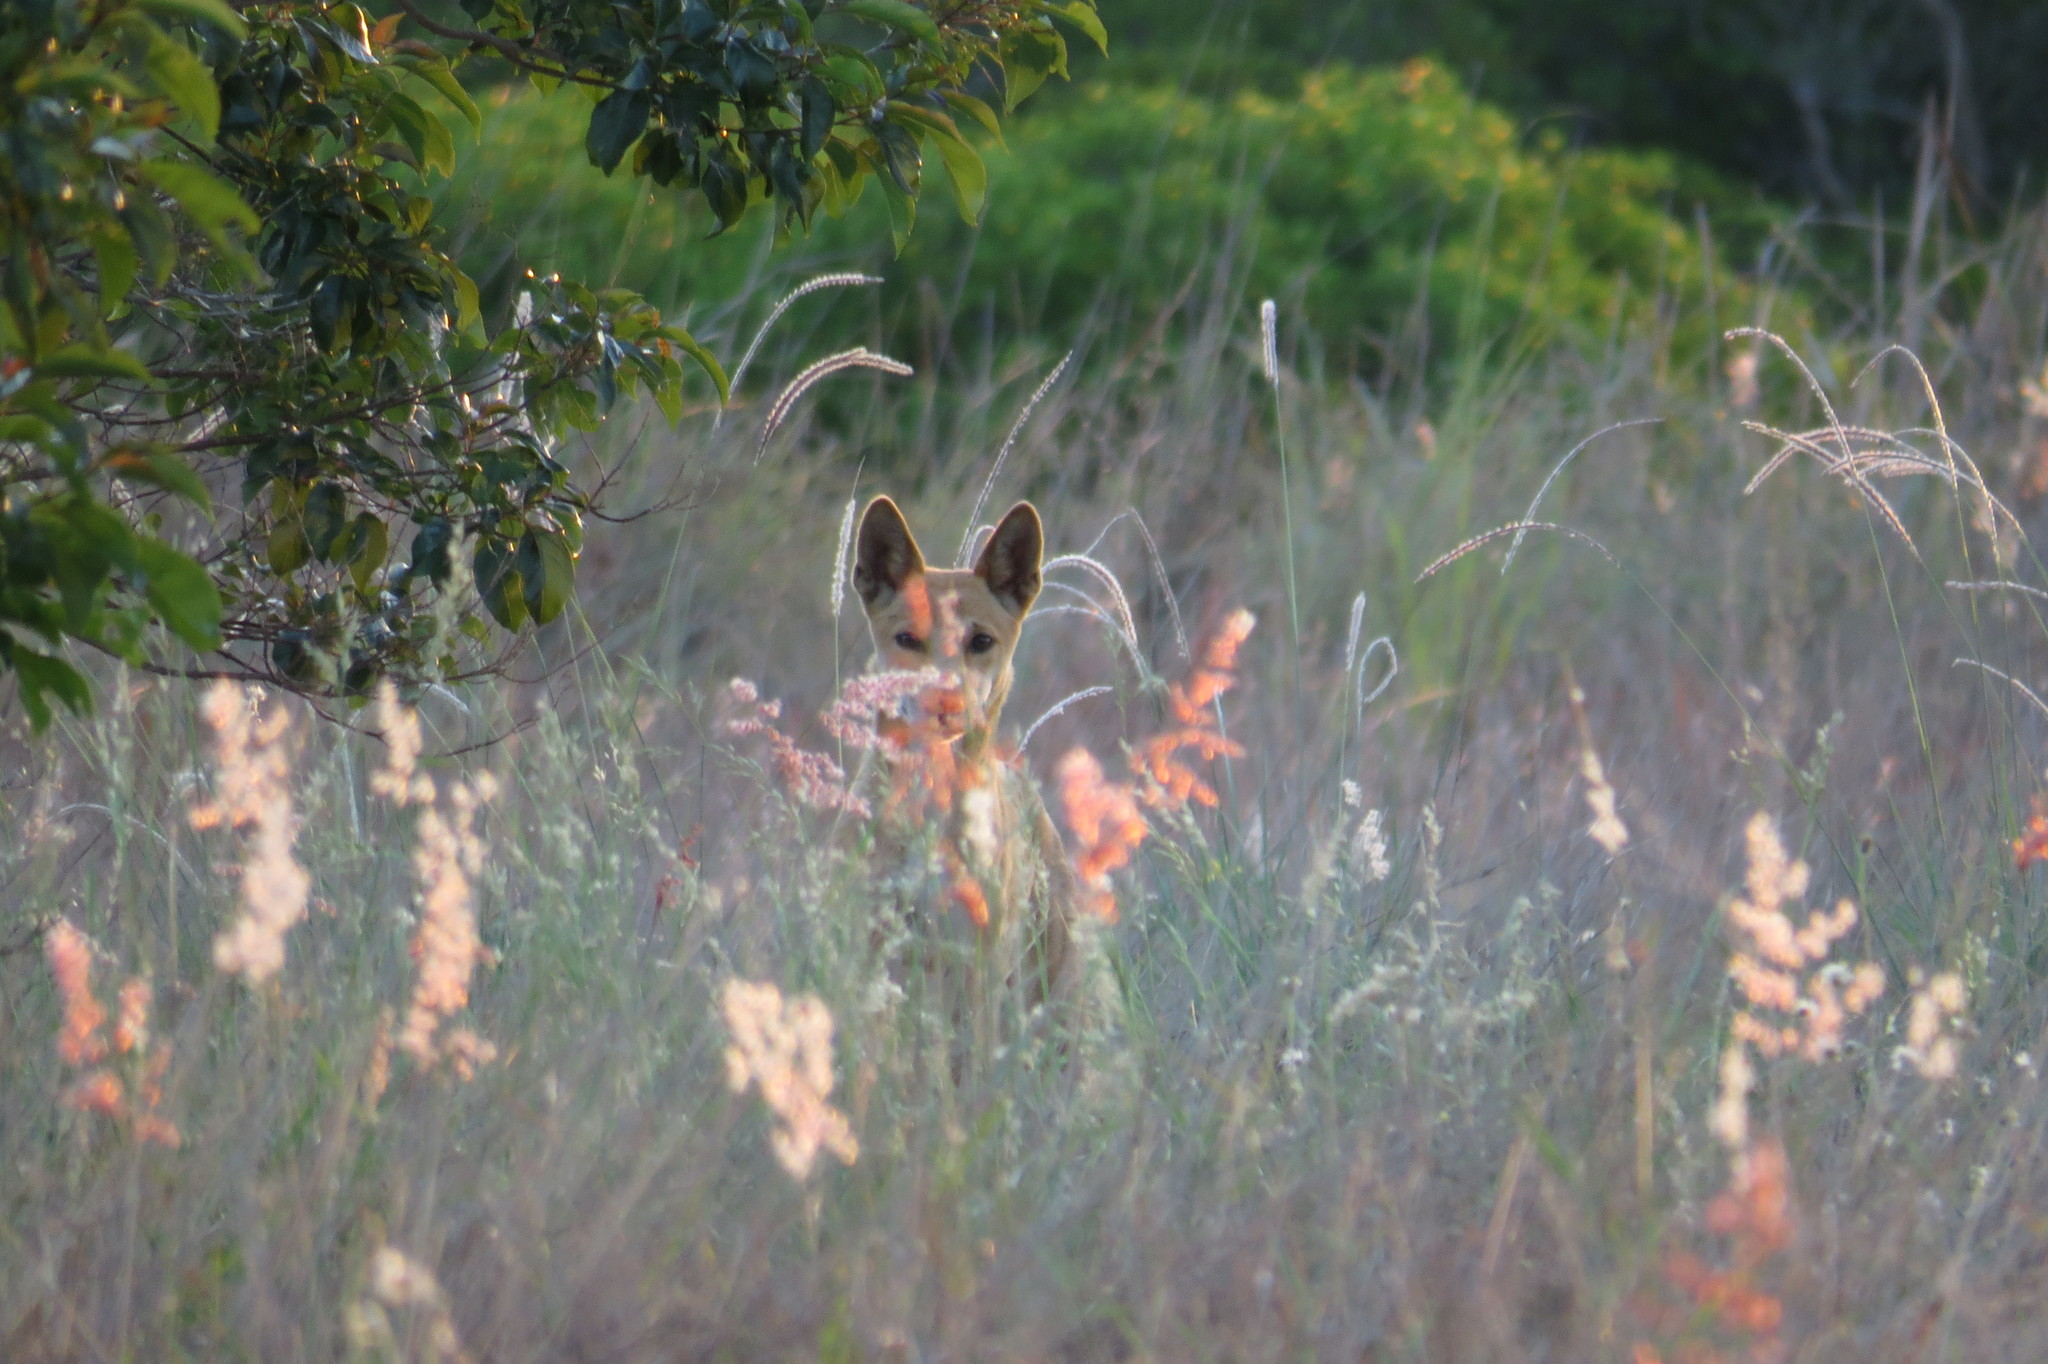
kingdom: Animalia
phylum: Chordata
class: Mammalia
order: Carnivora
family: Canidae
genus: Canis
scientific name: Canis lupus
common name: Gray wolf
